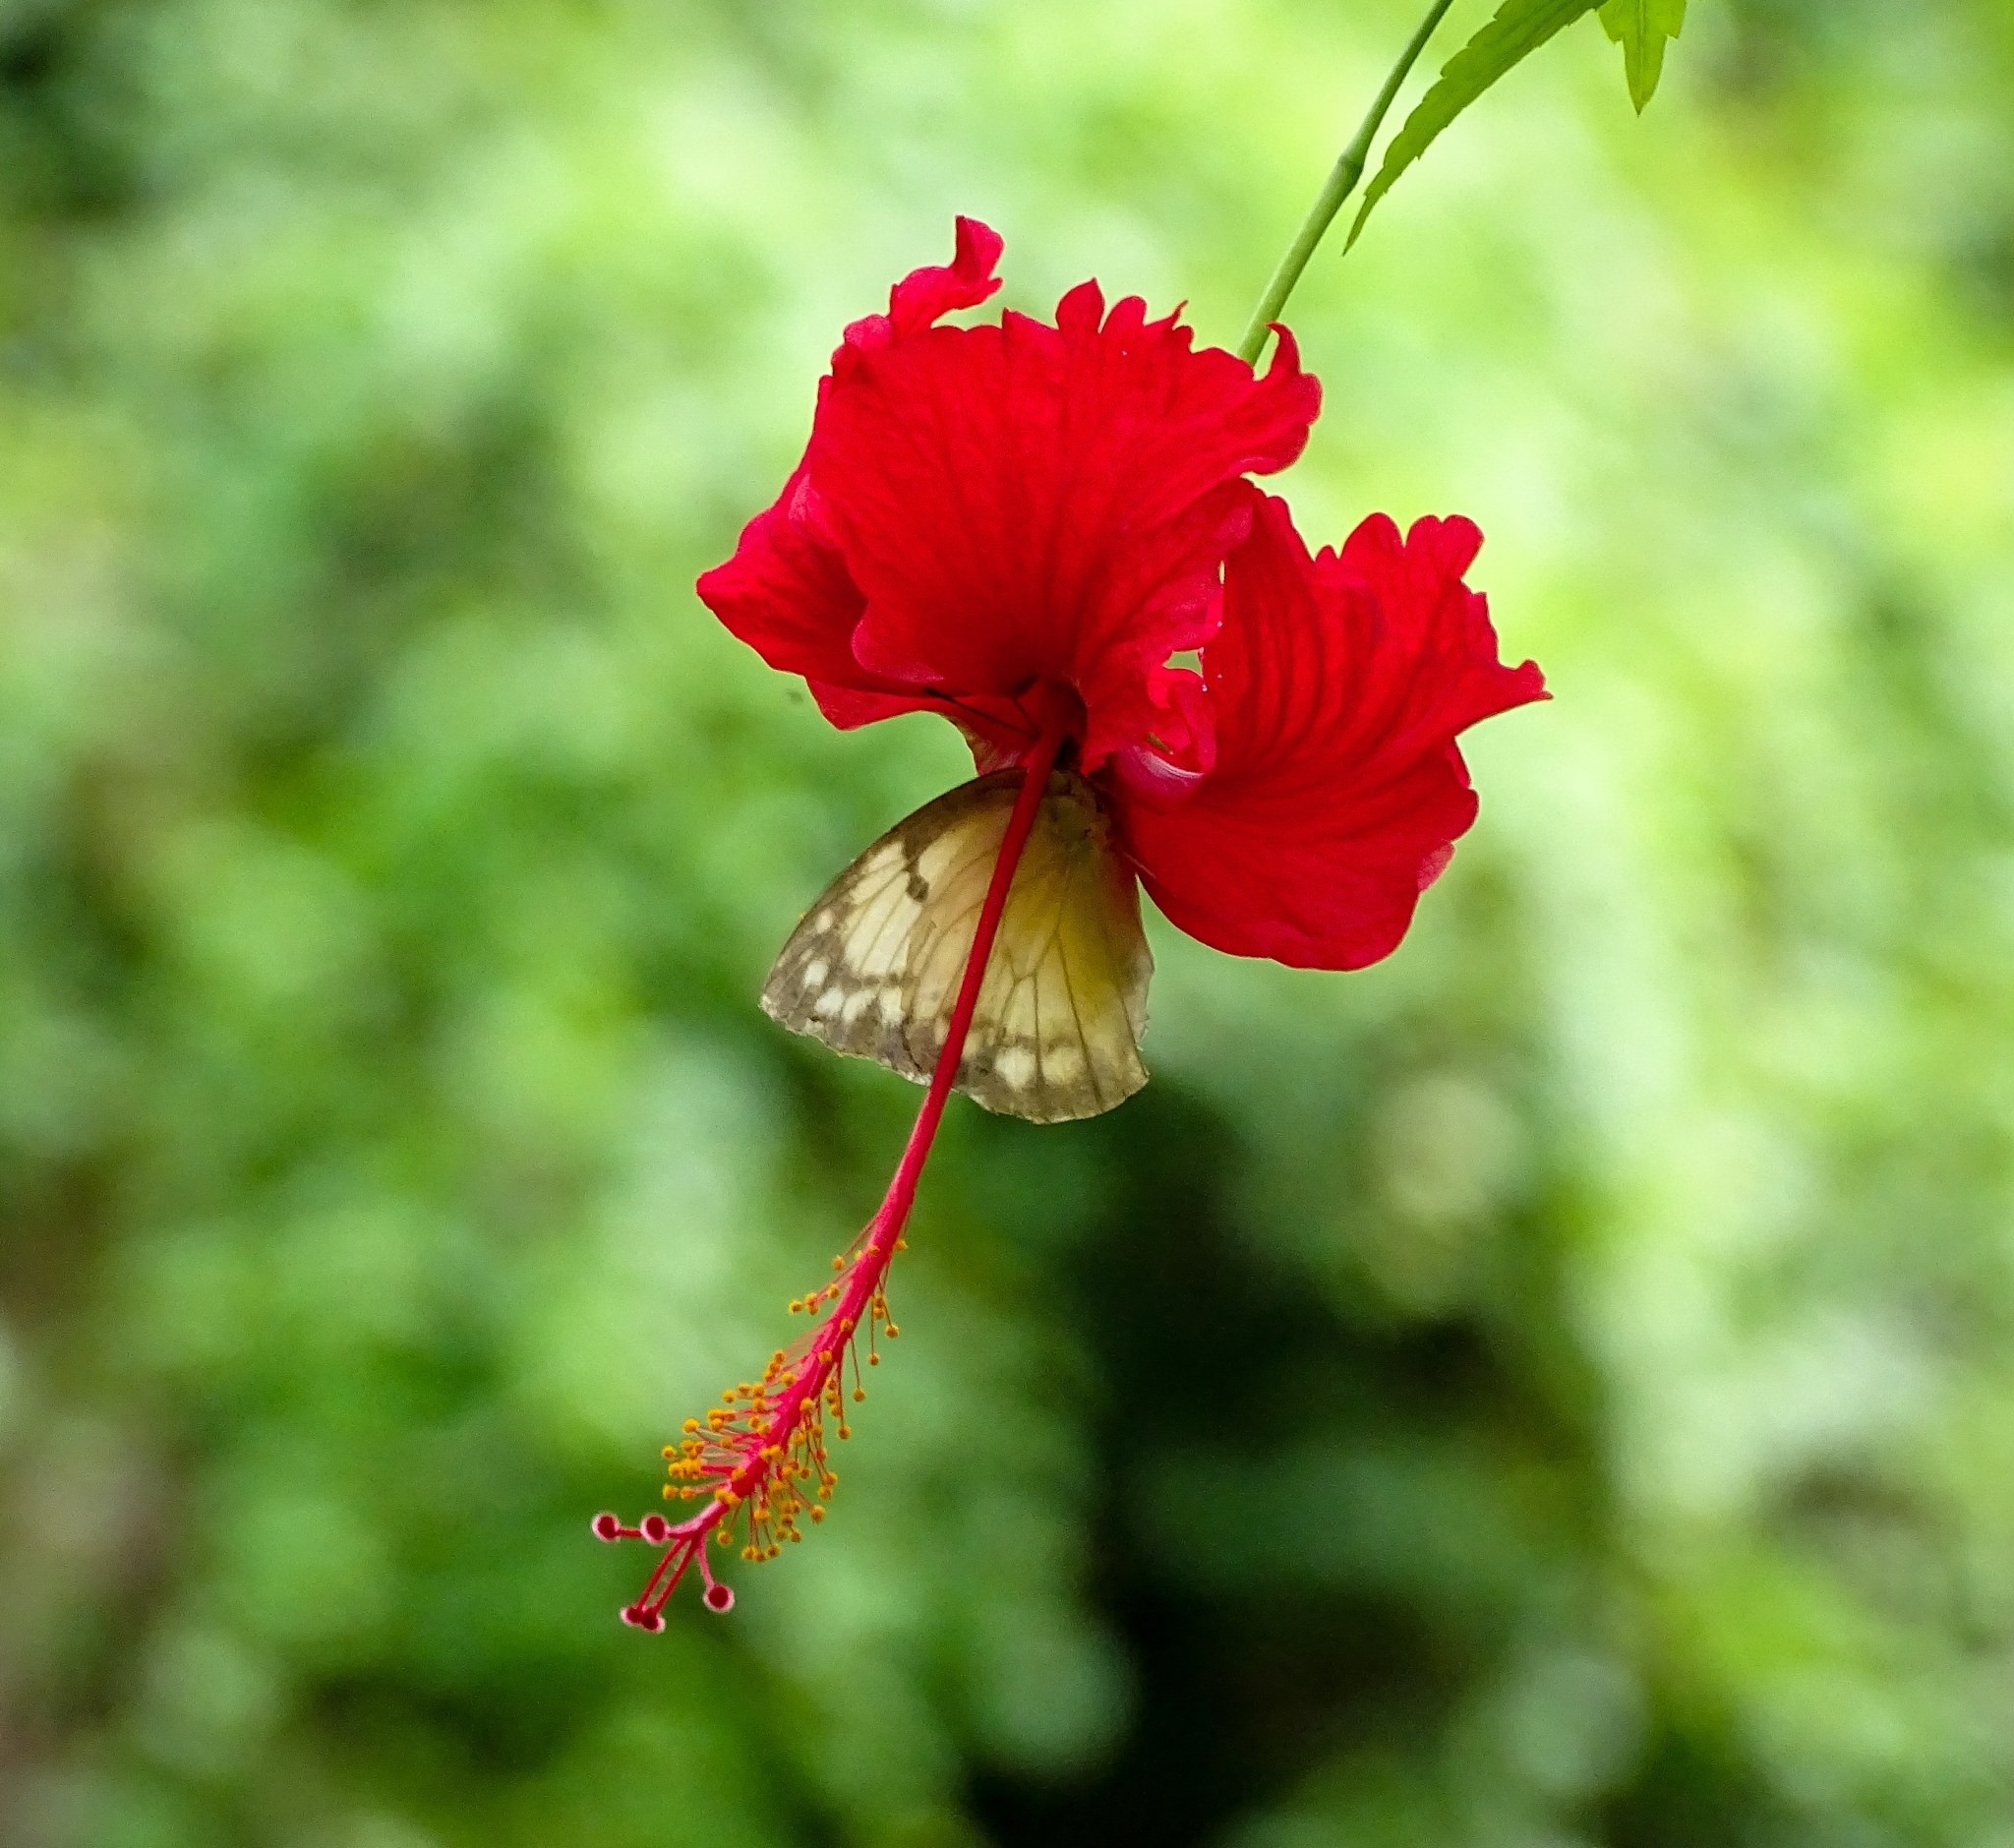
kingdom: Animalia
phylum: Arthropoda
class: Insecta
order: Lepidoptera
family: Pieridae
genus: Catopsilia
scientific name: Catopsilia pomona
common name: Common emigrant
